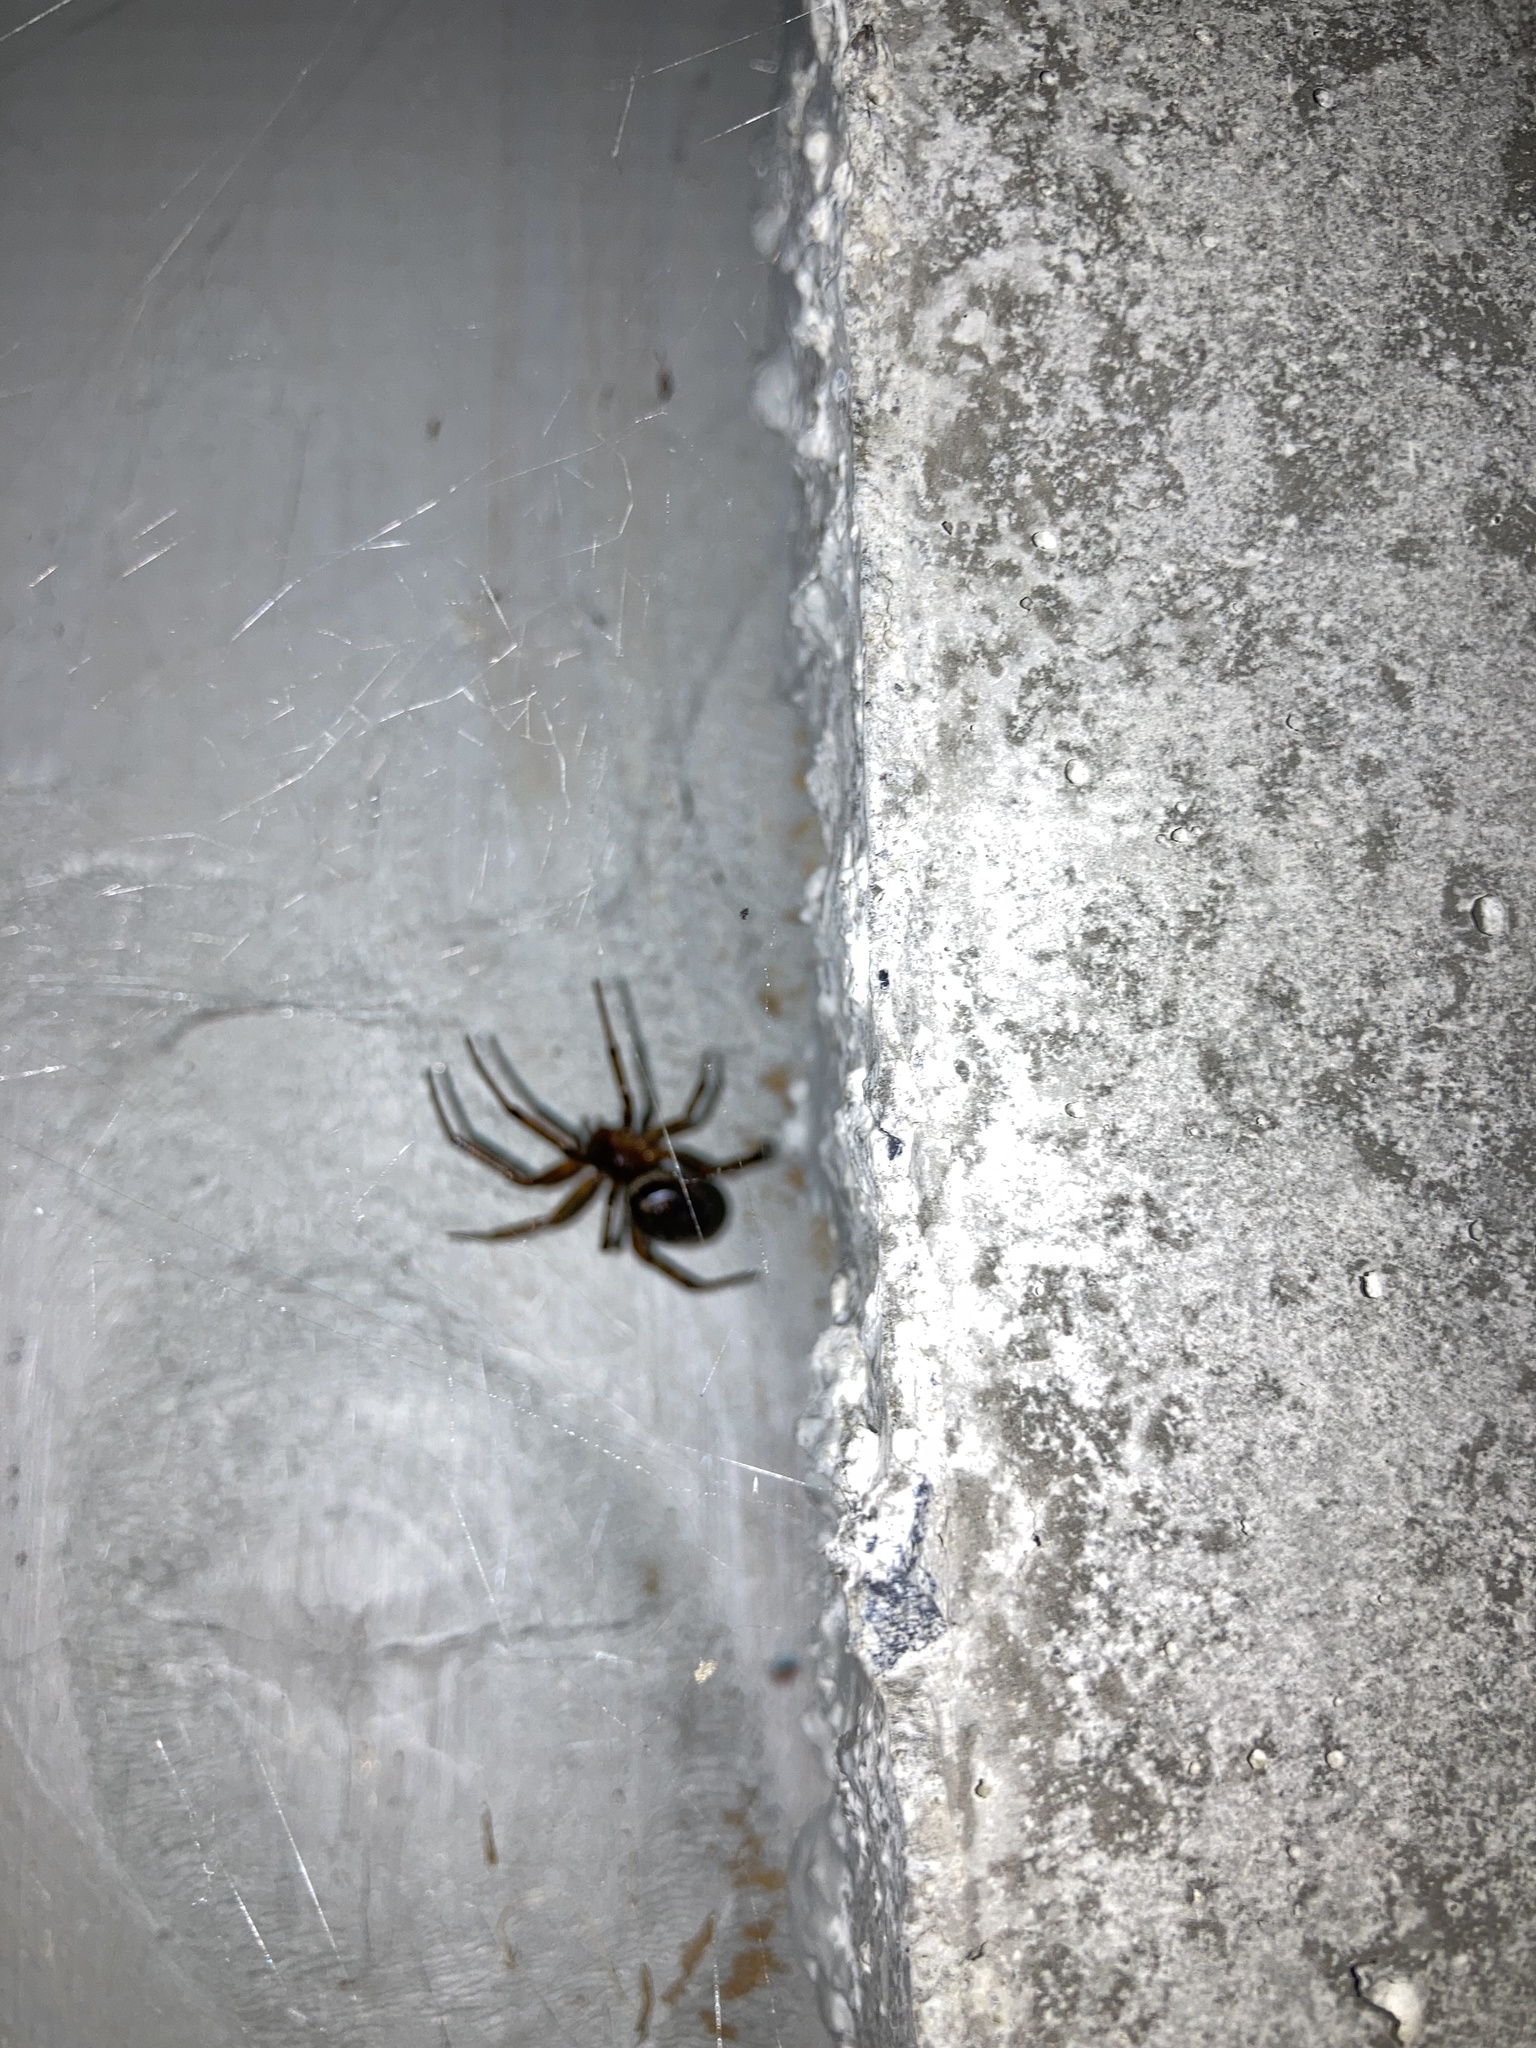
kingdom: Animalia
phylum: Arthropoda
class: Arachnida
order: Araneae
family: Theridiidae
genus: Steatoda
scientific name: Steatoda nobilis
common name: Cobweb weaver
